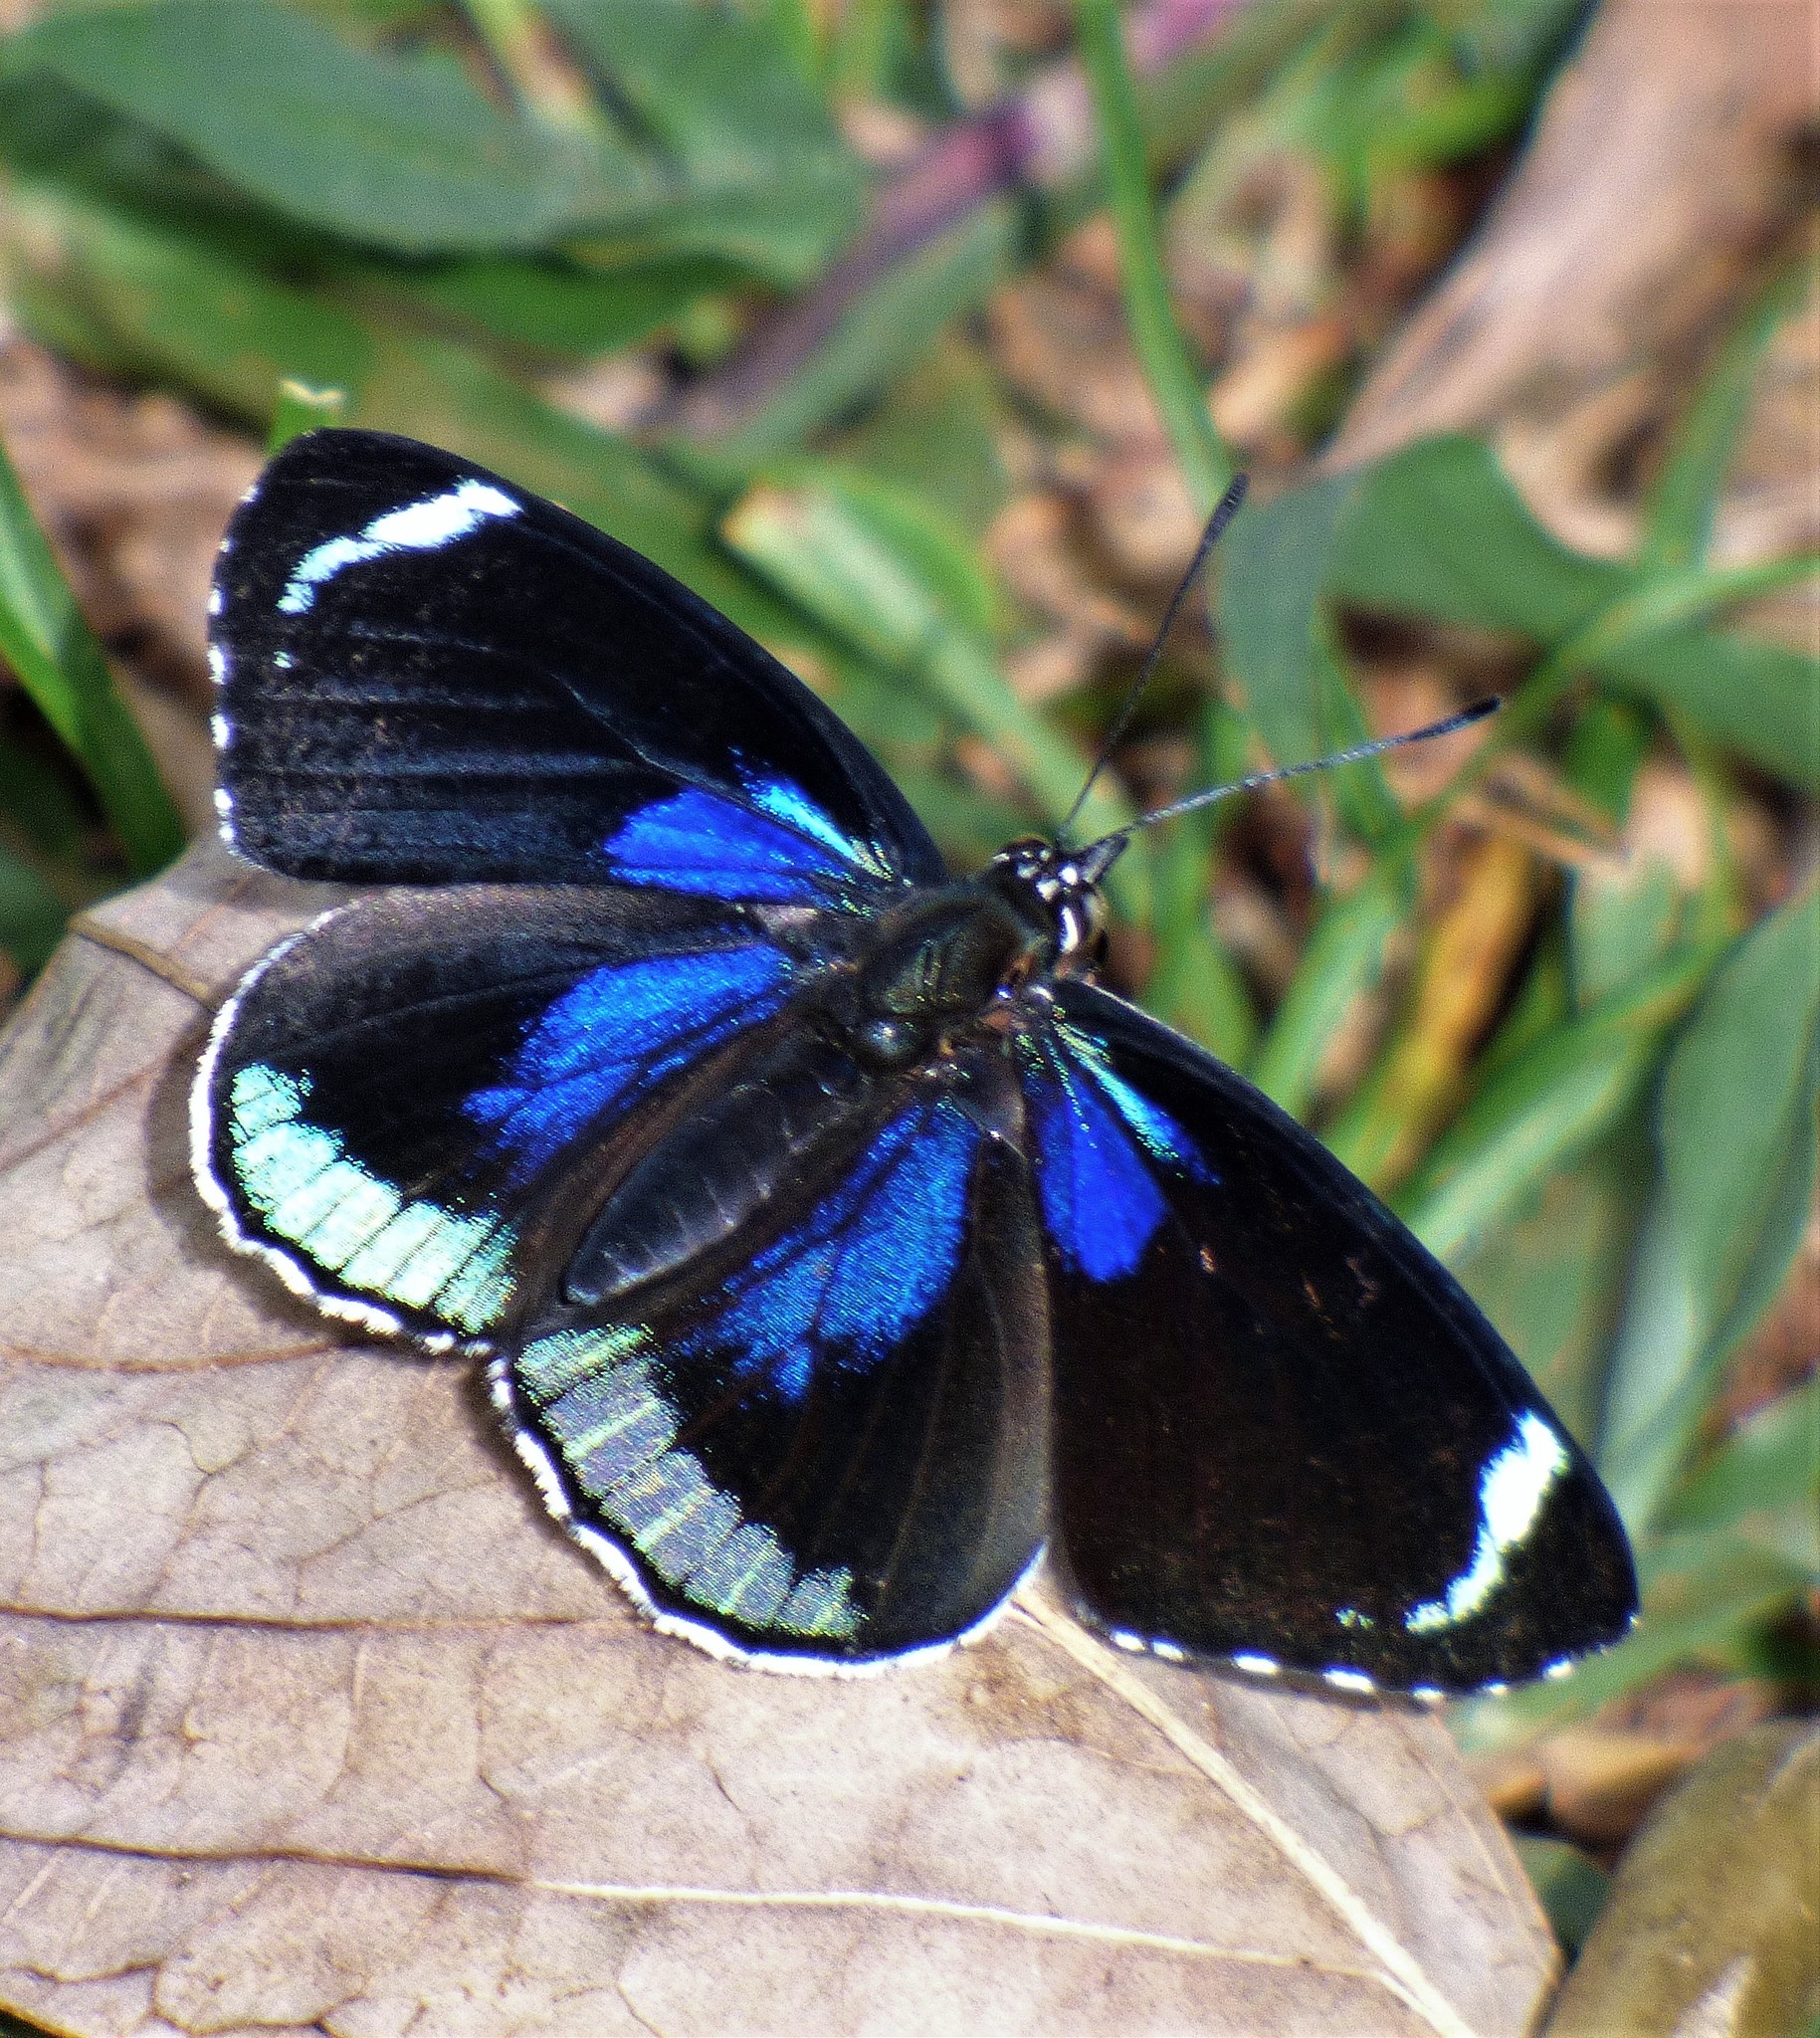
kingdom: Animalia
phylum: Arthropoda
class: Insecta
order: Lepidoptera
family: Nymphalidae
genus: Diaethria
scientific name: Diaethria candrena
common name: Number eighty
